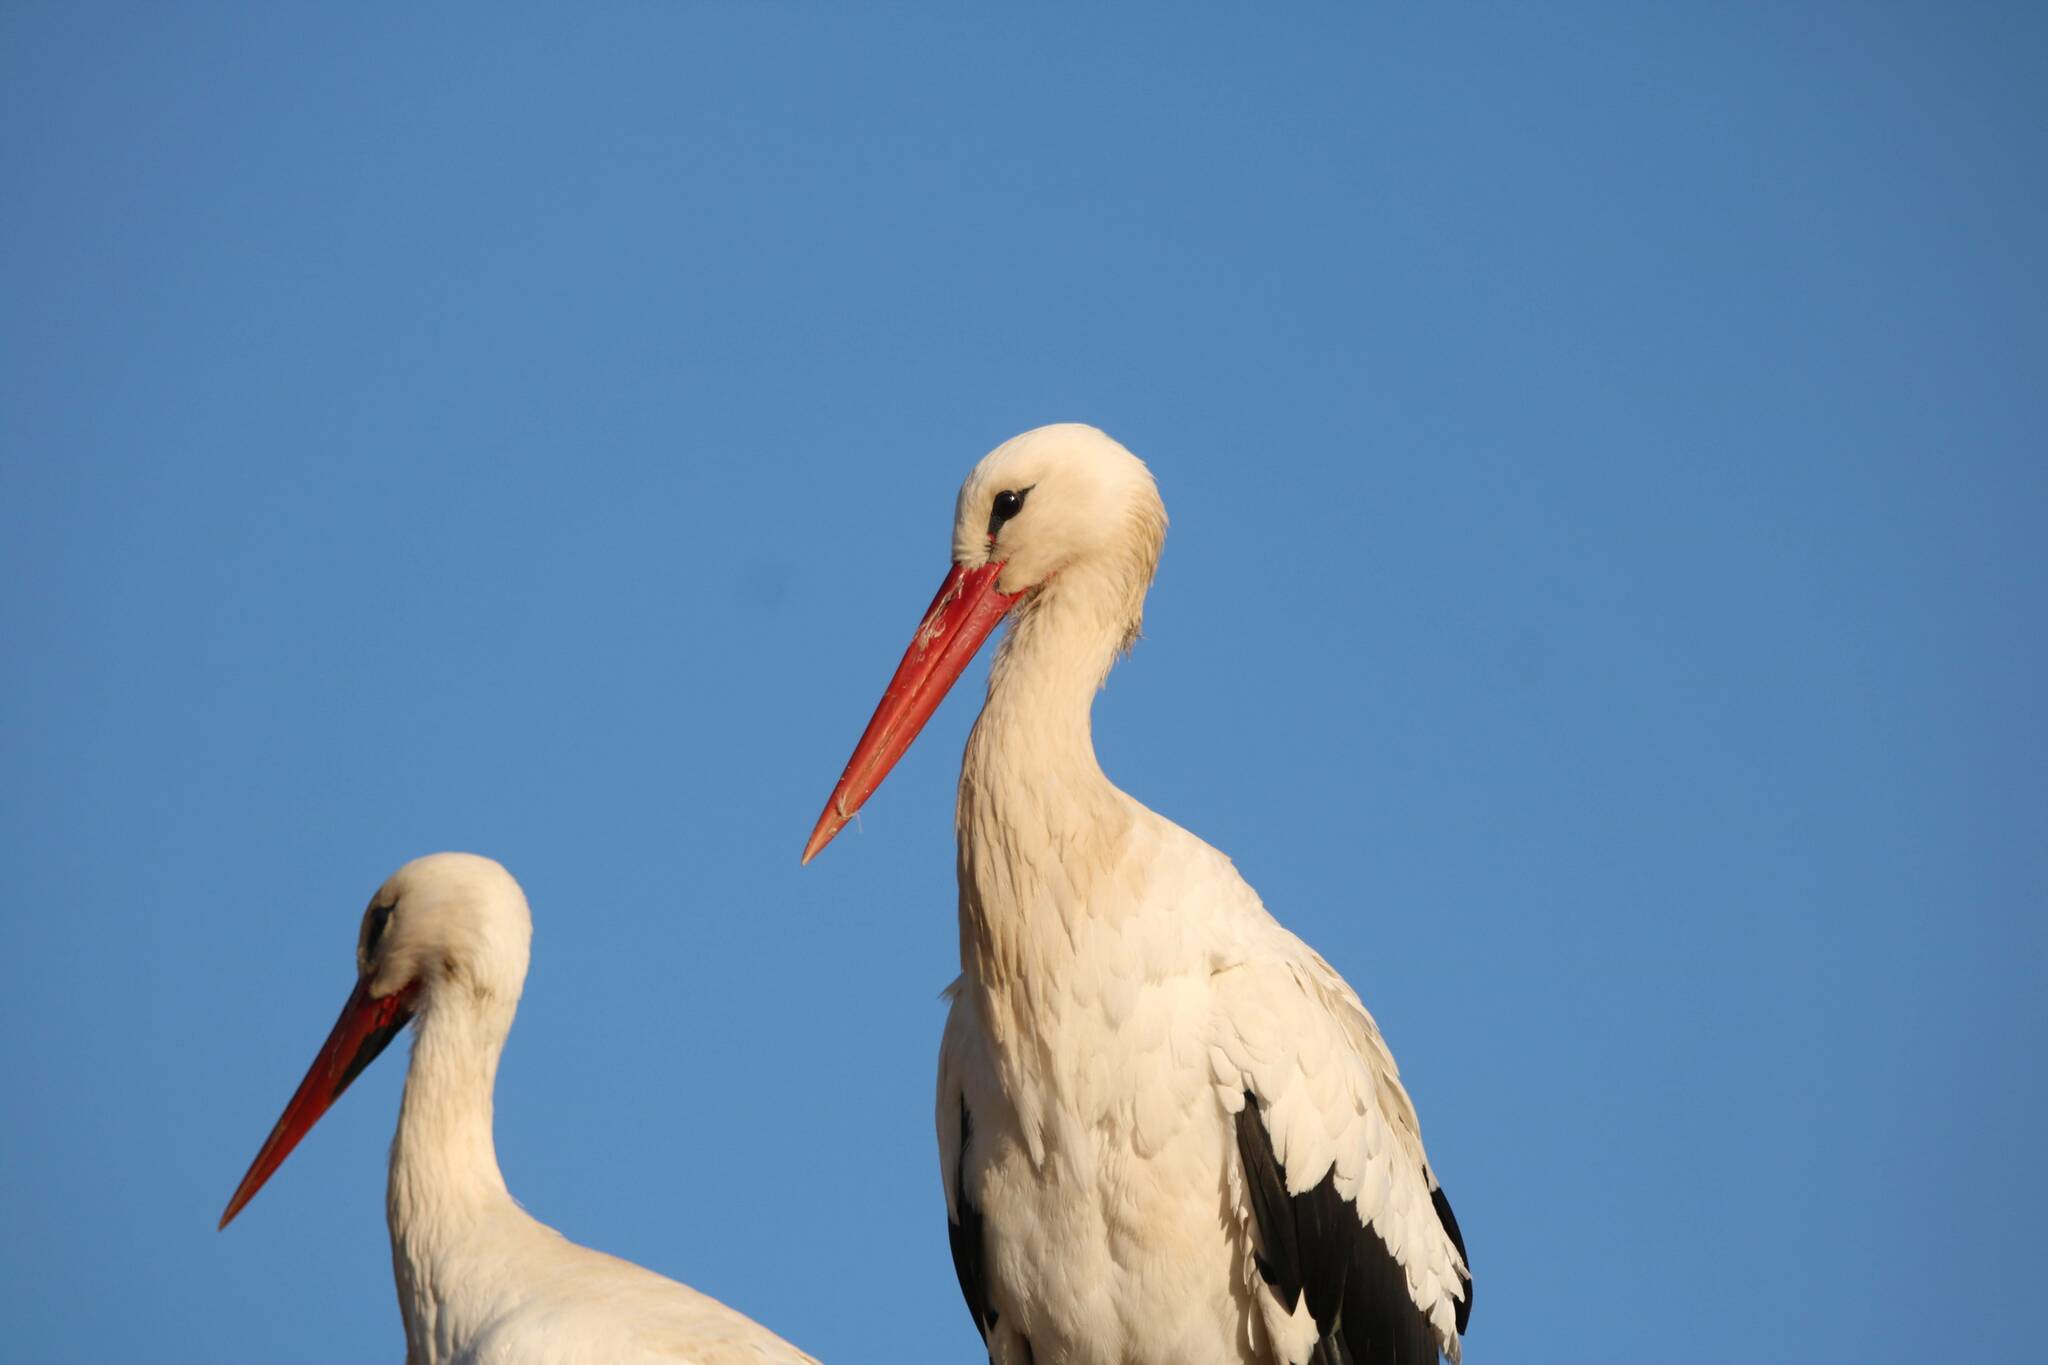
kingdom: Animalia
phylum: Chordata
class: Aves
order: Ciconiiformes
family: Ciconiidae
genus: Ciconia
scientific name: Ciconia ciconia
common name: White stork
